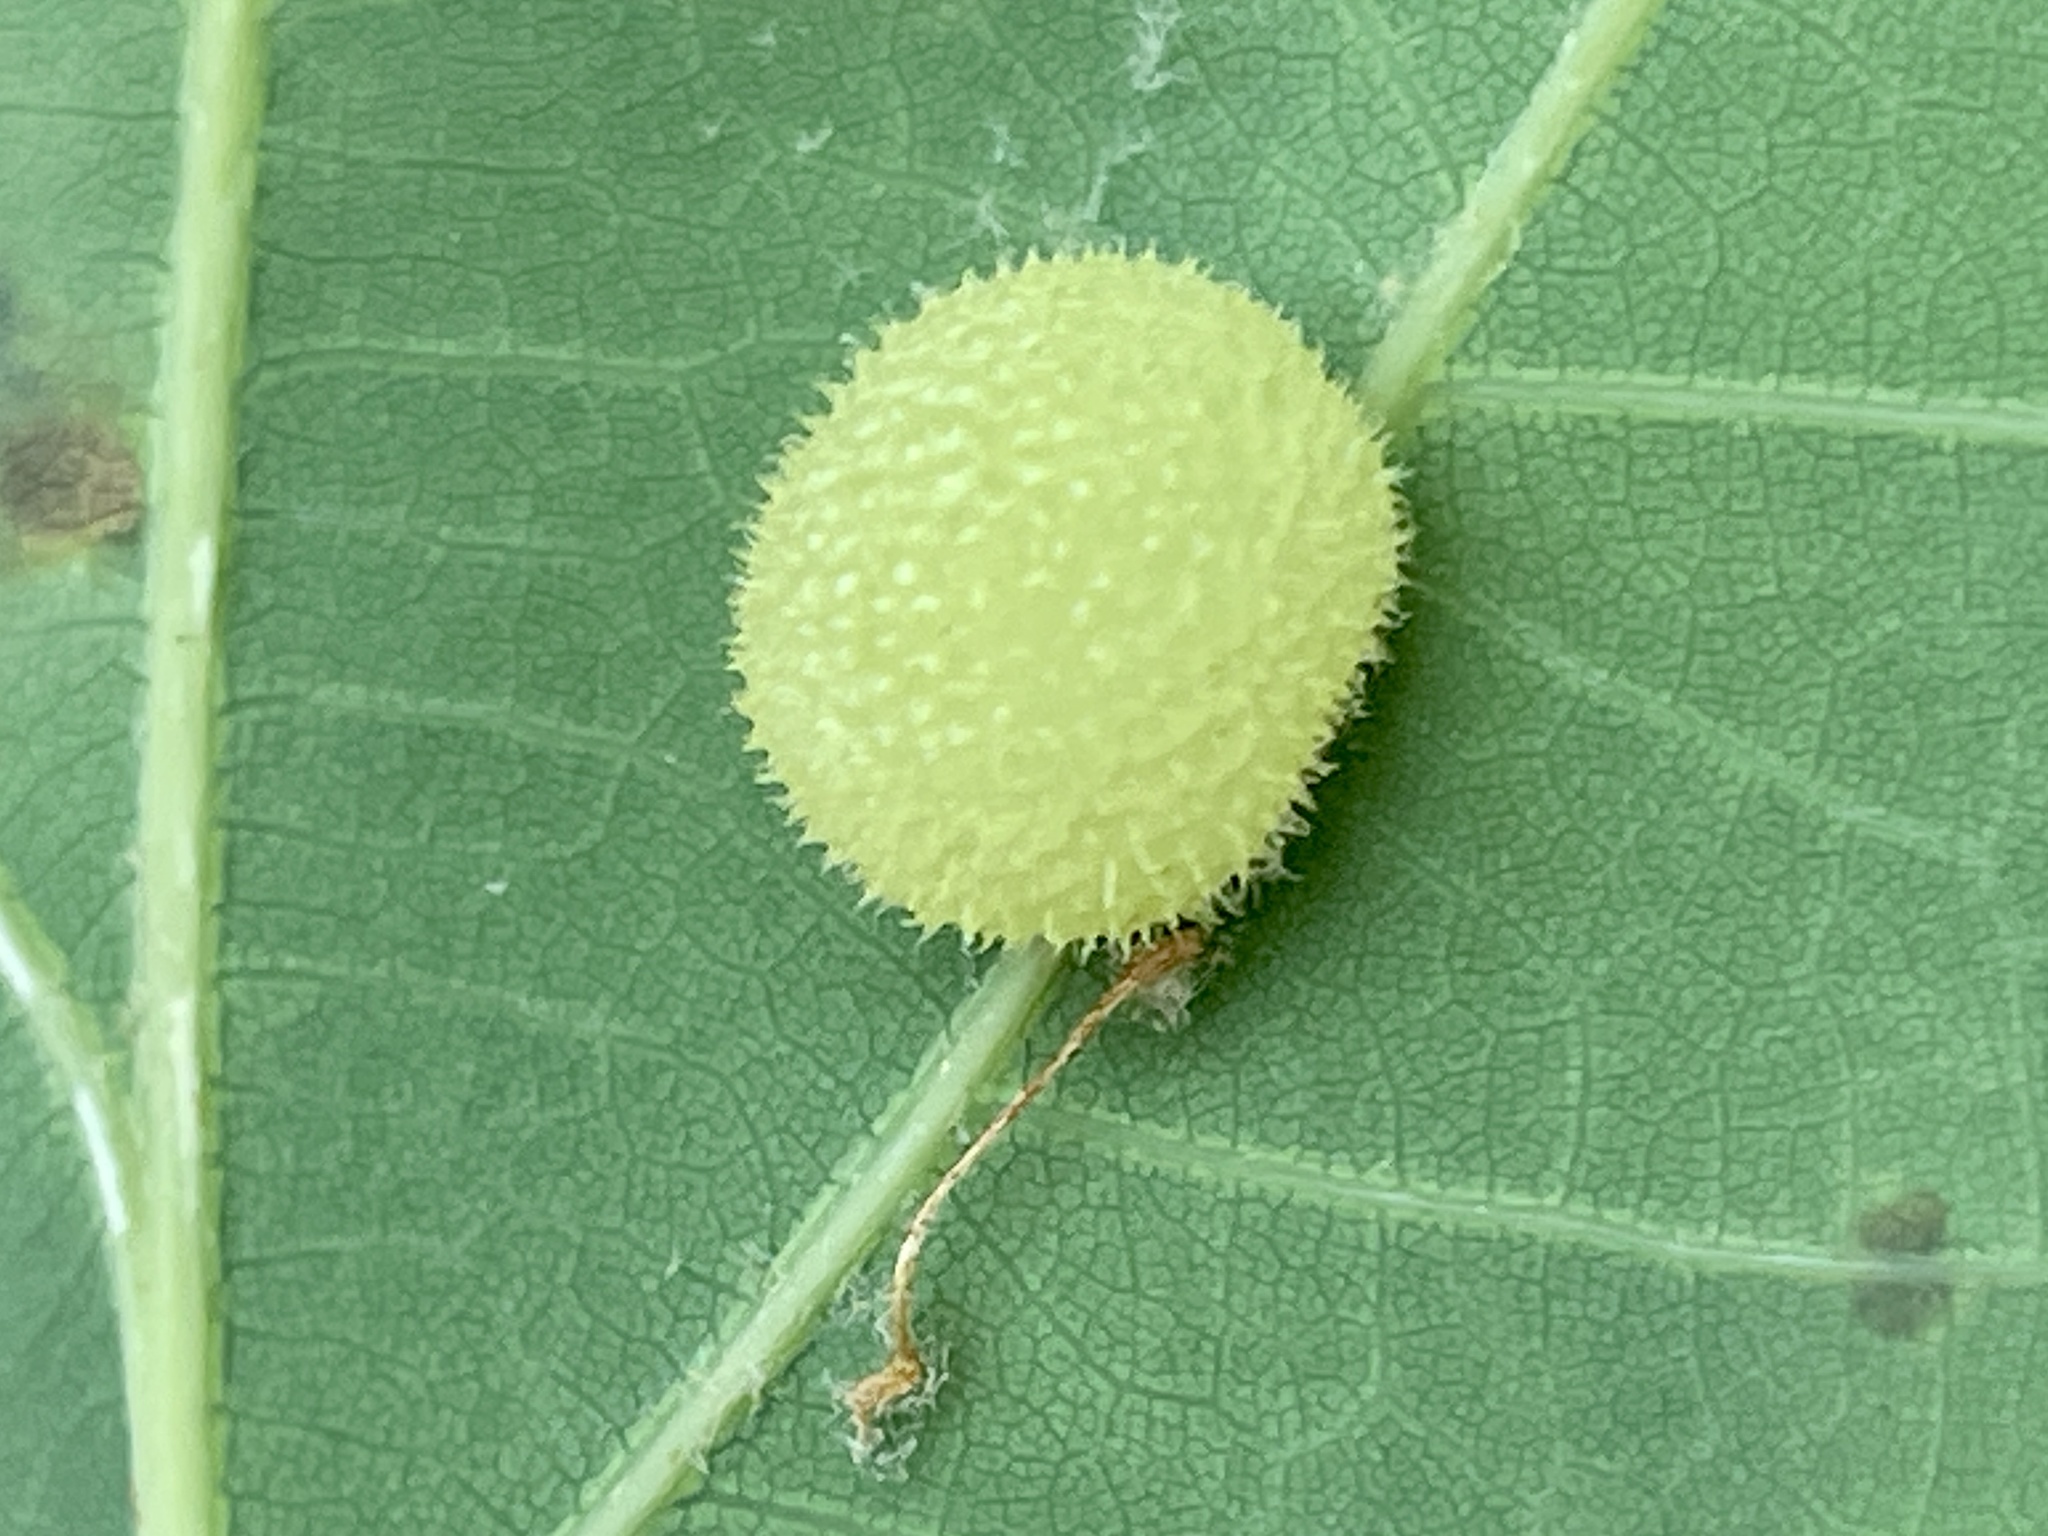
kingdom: Animalia
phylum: Arthropoda
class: Insecta
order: Hymenoptera
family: Cynipidae
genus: Acraspis
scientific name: Acraspis
